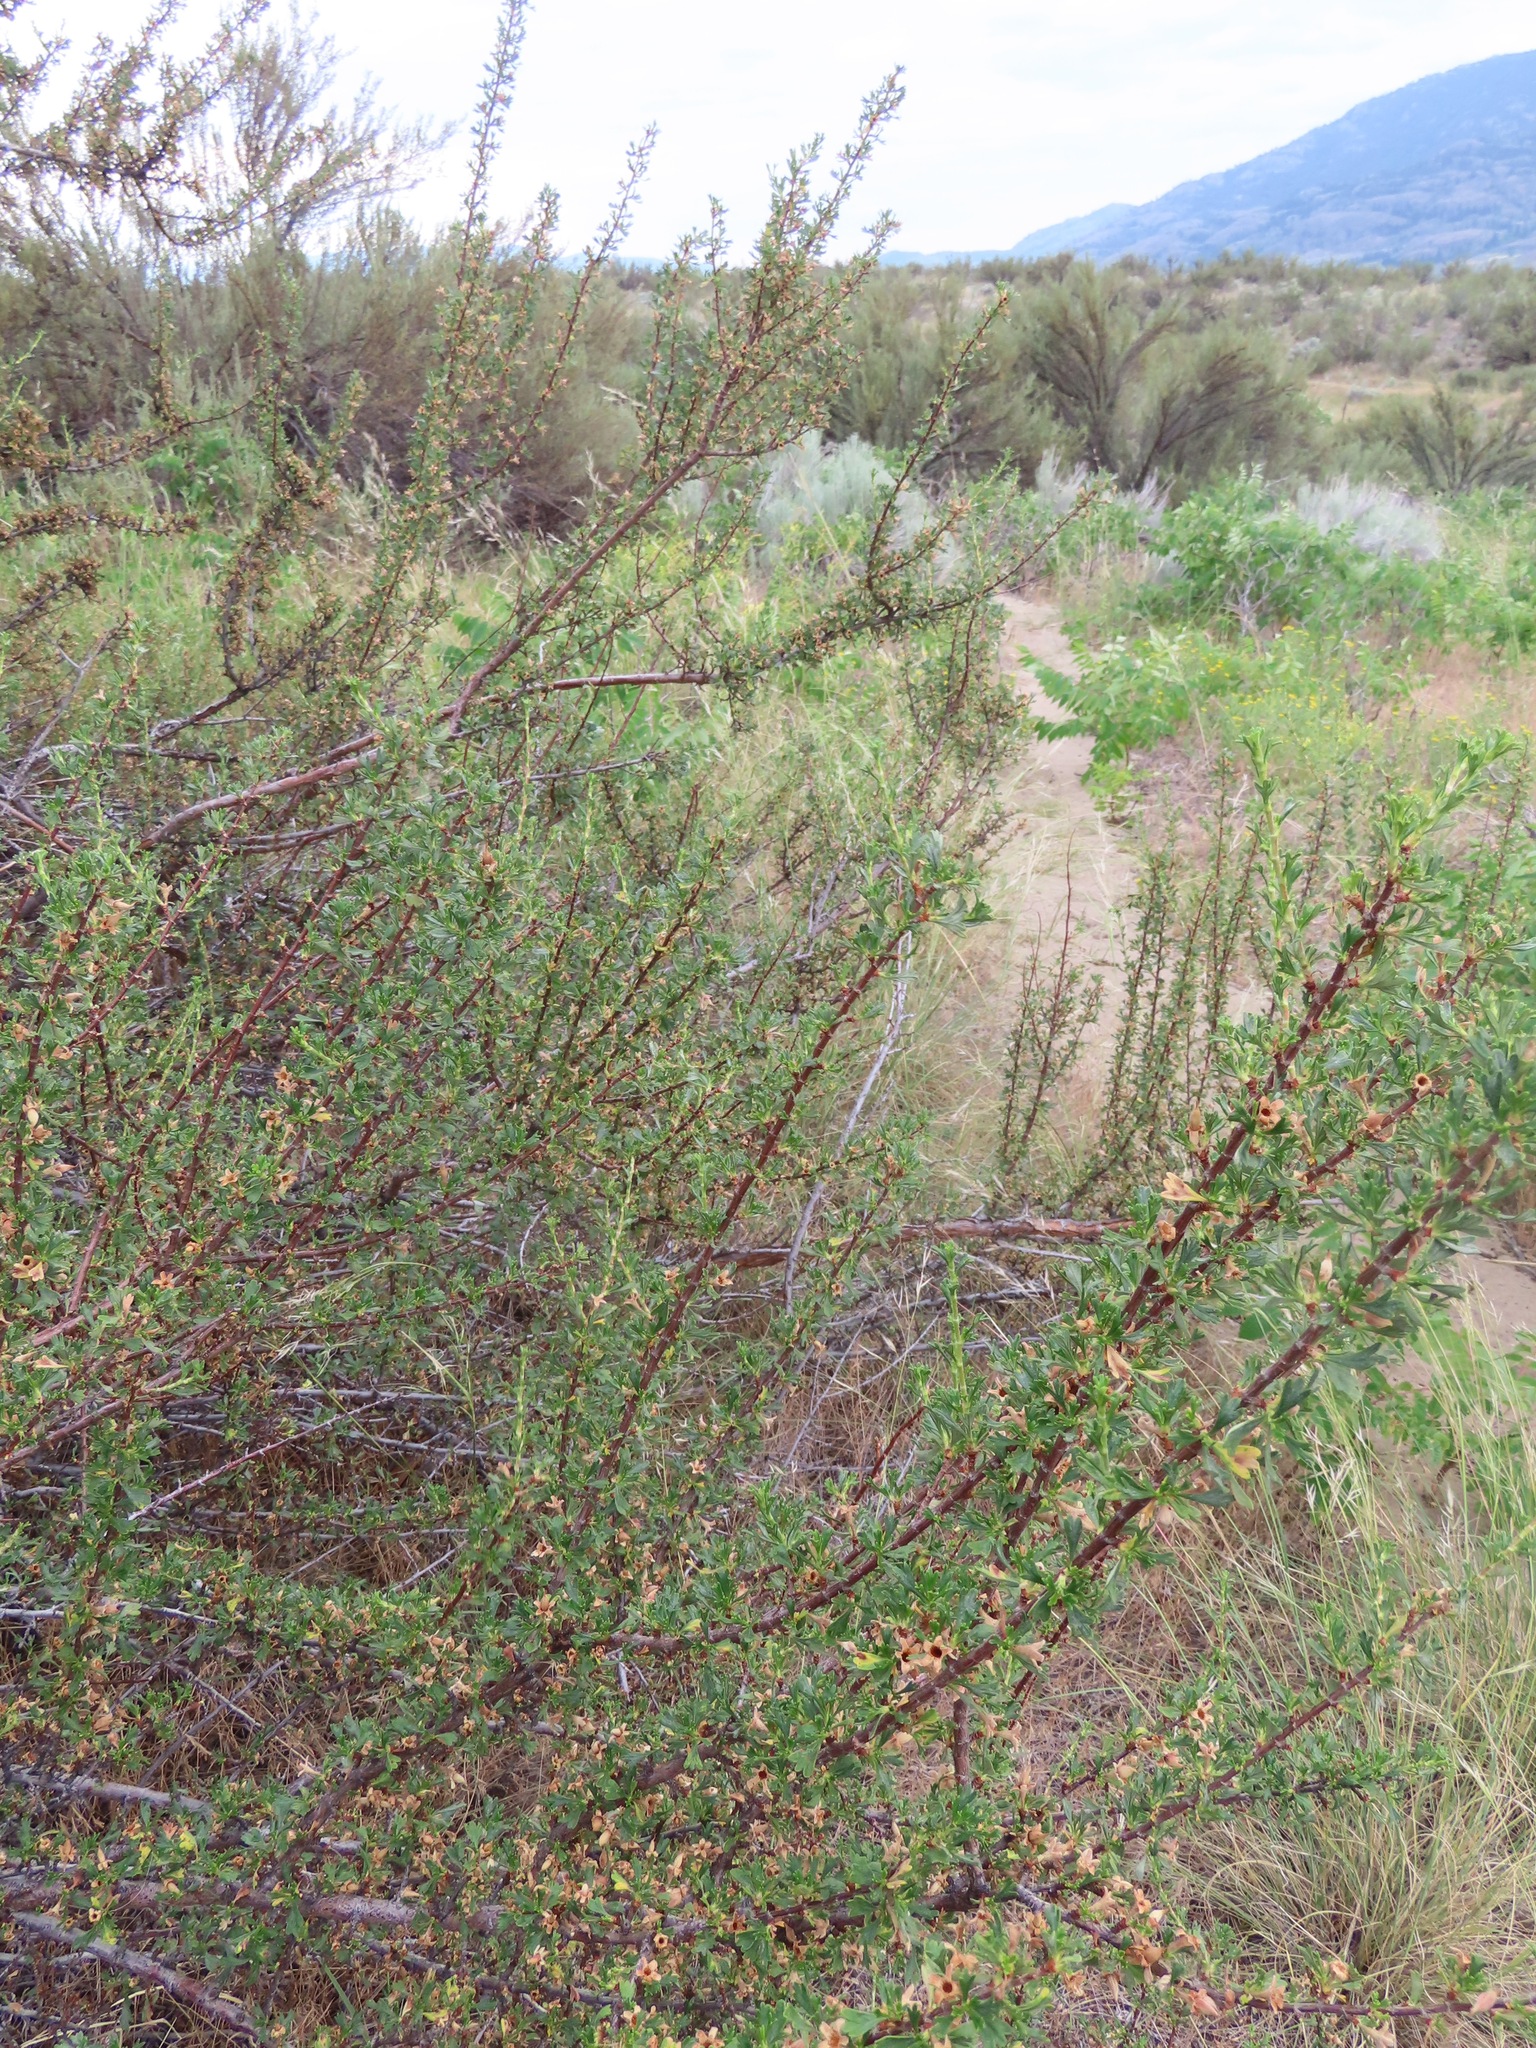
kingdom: Plantae
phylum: Tracheophyta
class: Magnoliopsida
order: Rosales
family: Rosaceae
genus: Purshia
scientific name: Purshia tridentata
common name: Antelope bitterbrush
